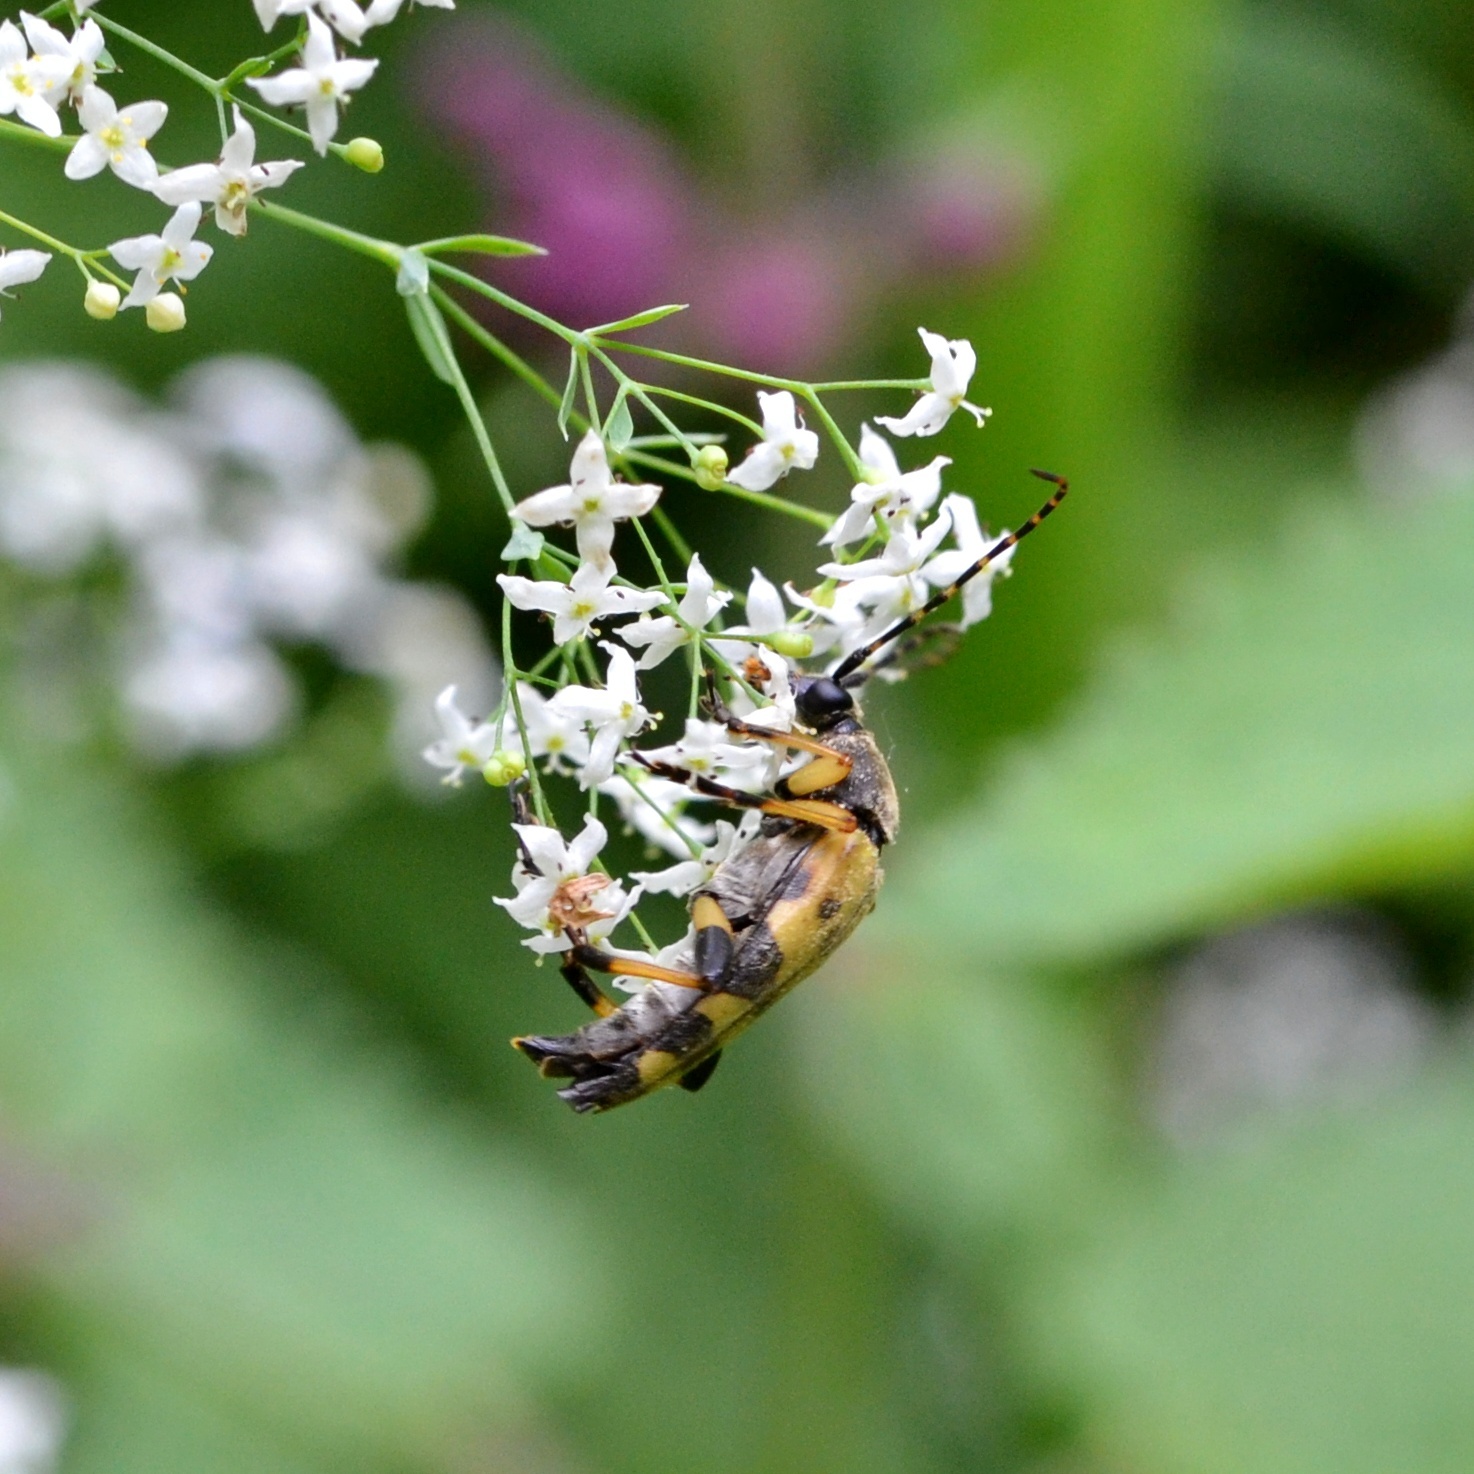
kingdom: Animalia
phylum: Arthropoda
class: Insecta
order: Coleoptera
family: Cerambycidae
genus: Rutpela
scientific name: Rutpela maculata
